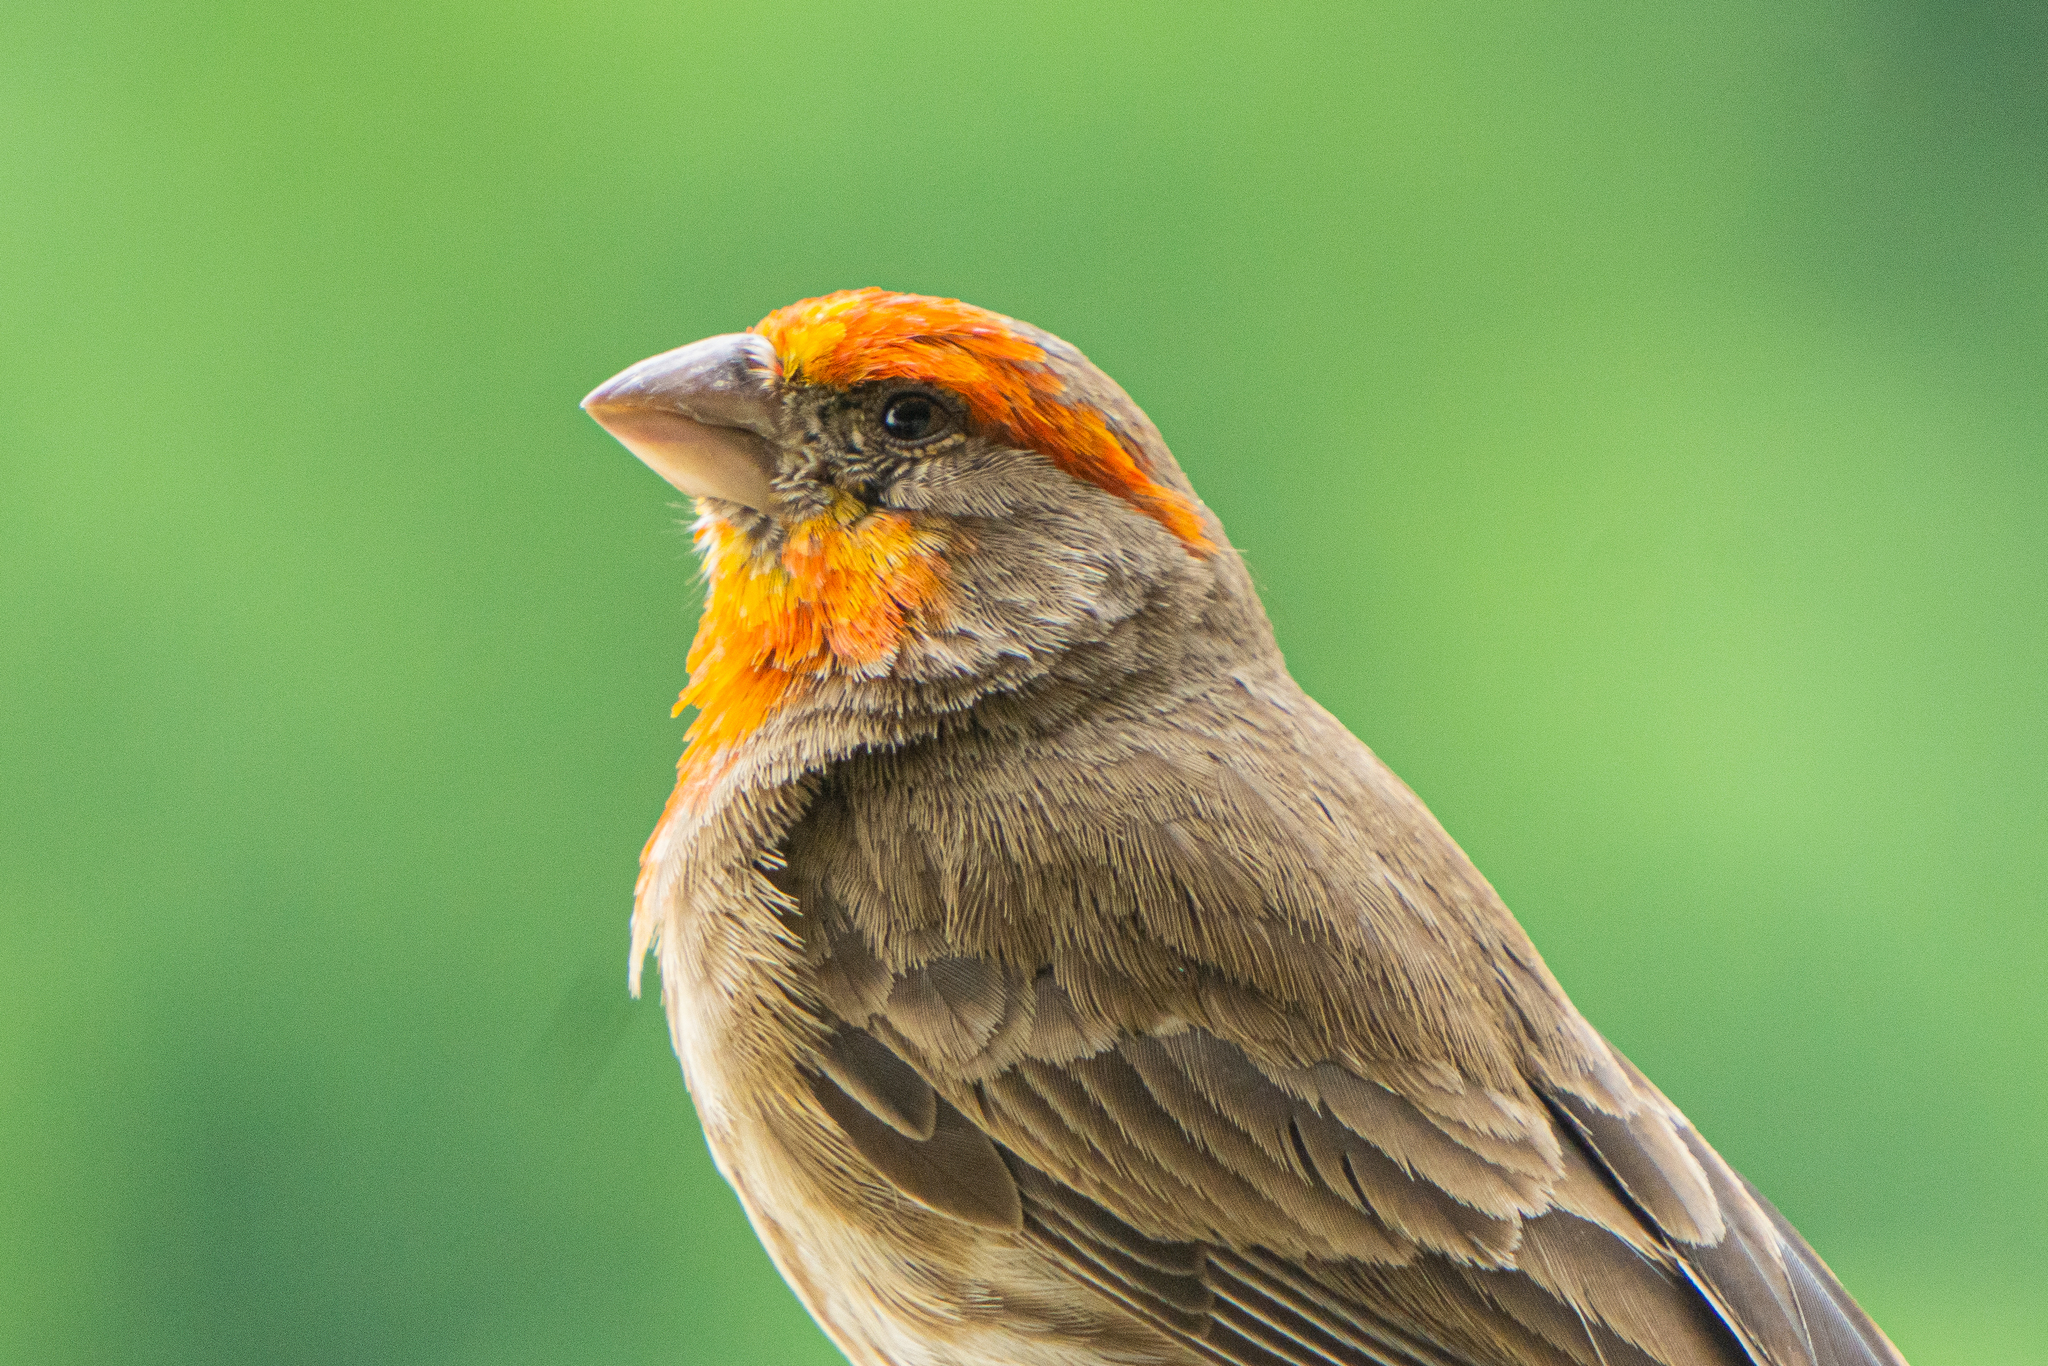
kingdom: Animalia
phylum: Chordata
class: Aves
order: Passeriformes
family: Fringillidae
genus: Haemorhous
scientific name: Haemorhous mexicanus
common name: House finch
